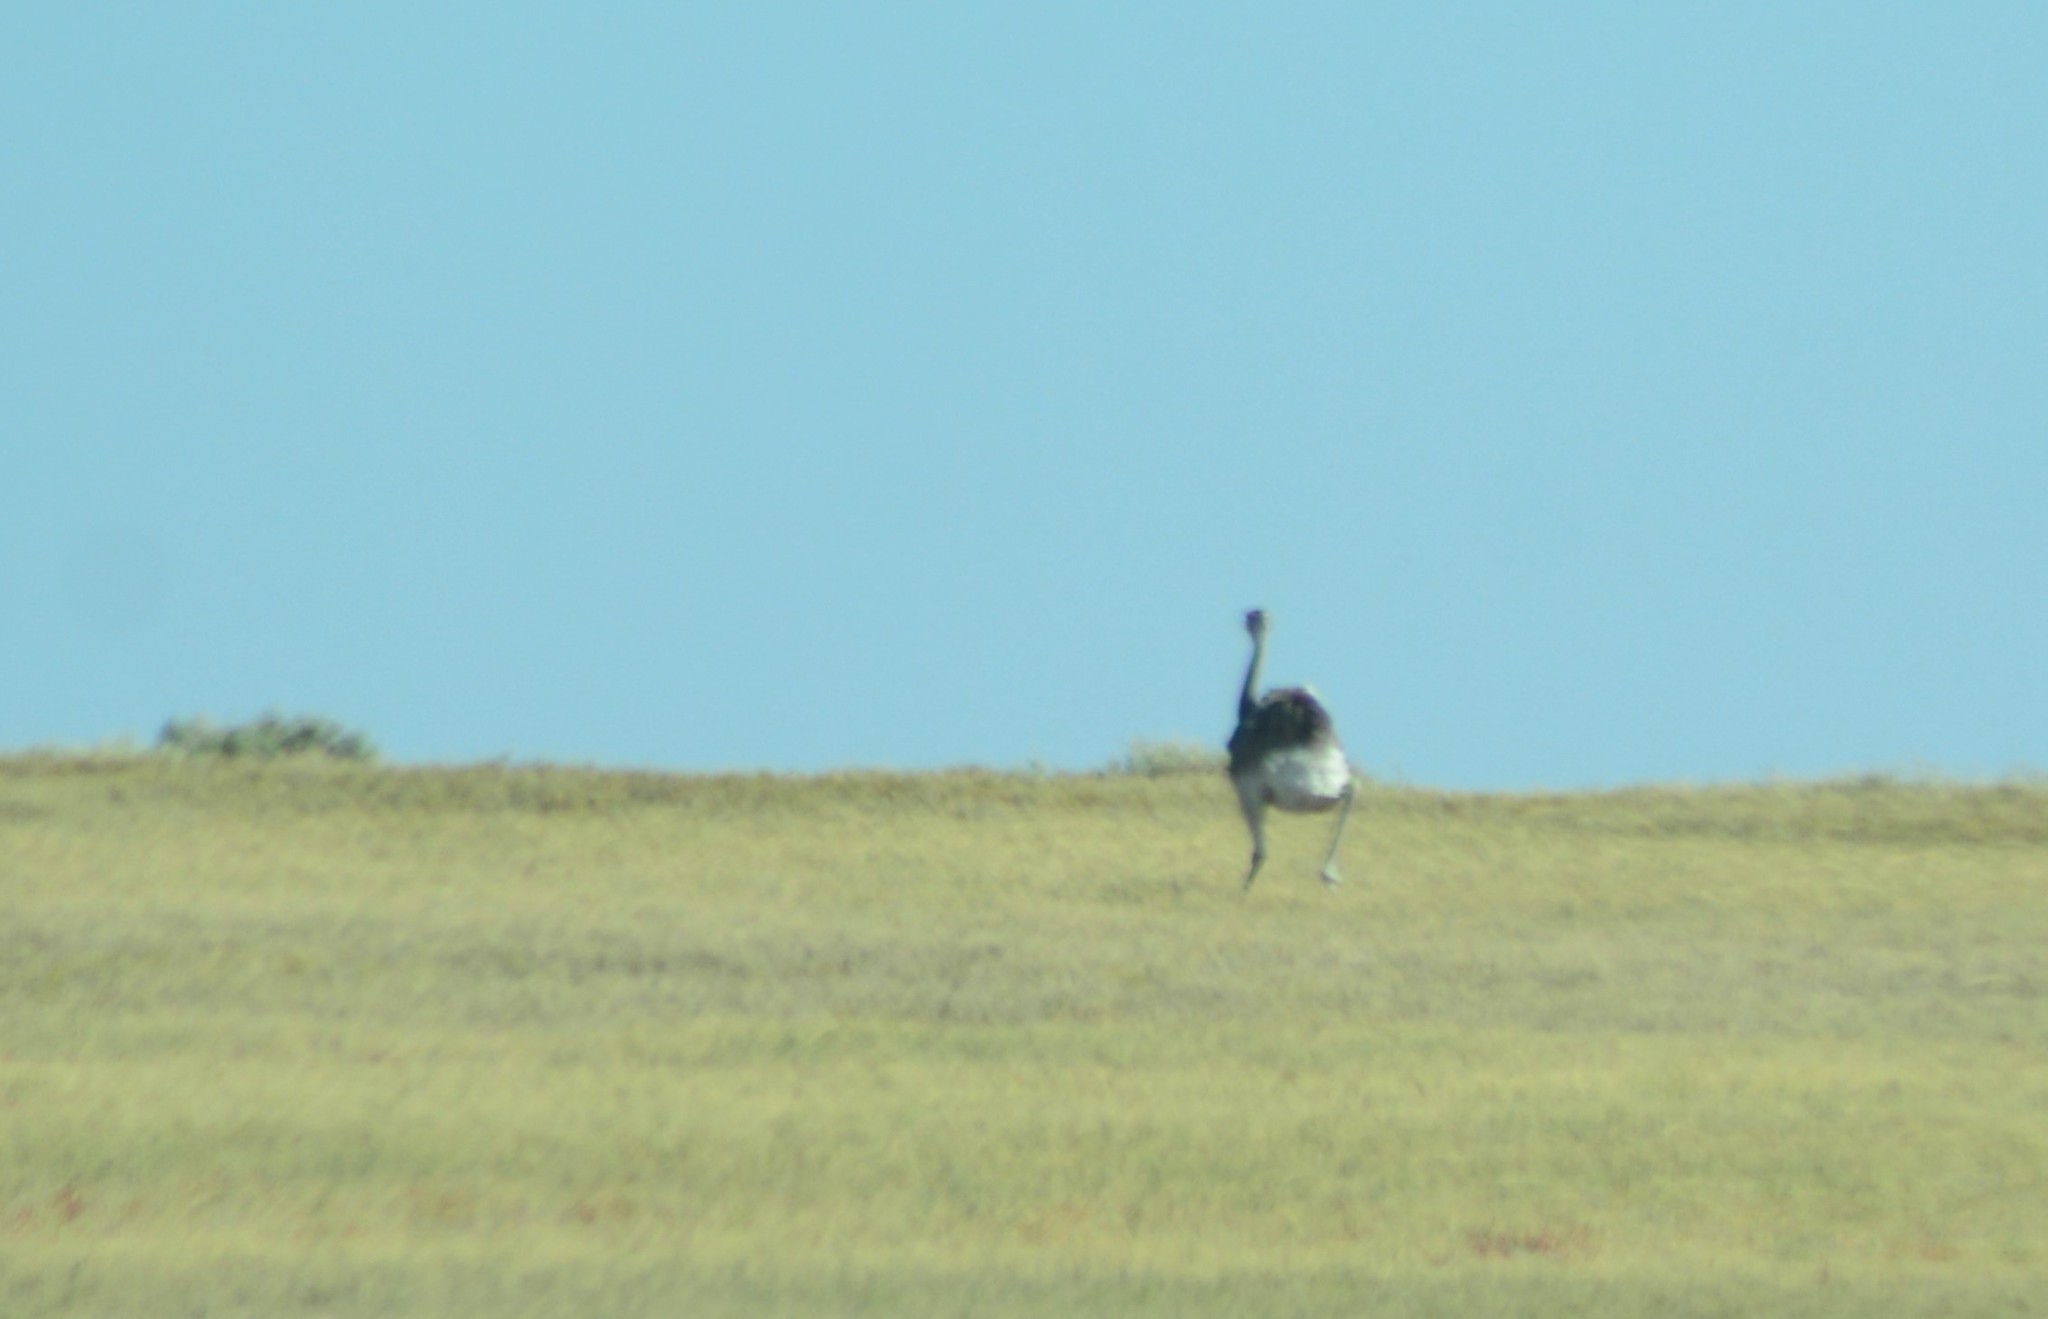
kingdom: Animalia
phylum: Chordata
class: Aves
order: Rheiformes
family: Rheidae
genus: Rhea
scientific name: Rhea americana
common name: Greater rhea
